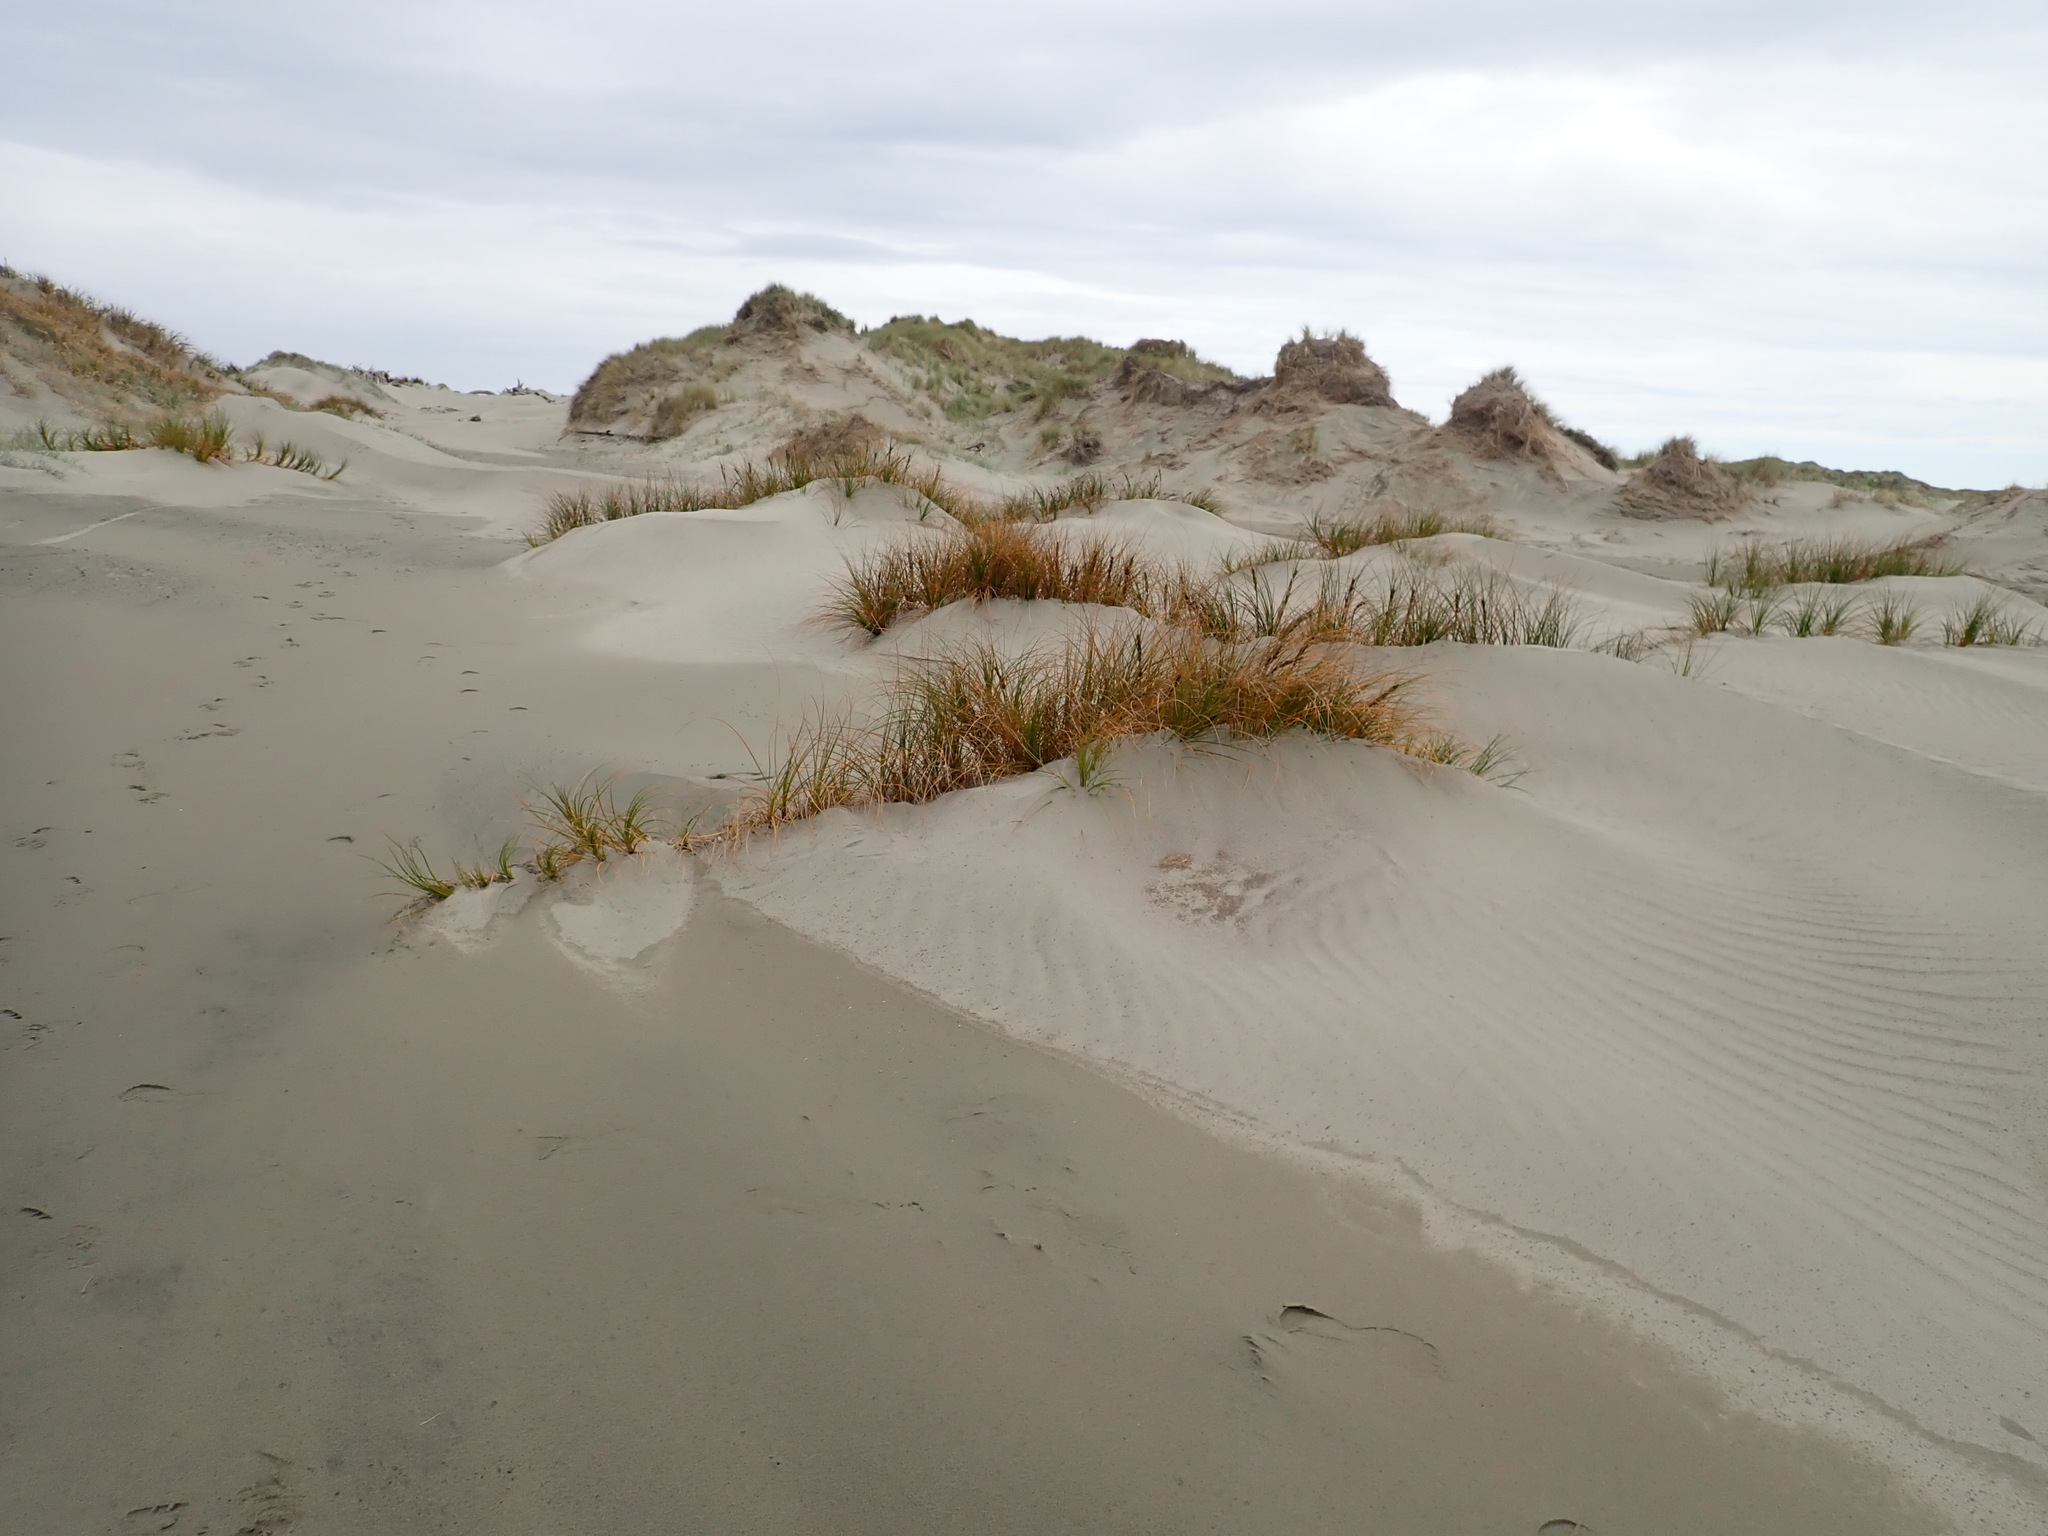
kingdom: Plantae
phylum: Tracheophyta
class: Liliopsida
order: Poales
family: Cyperaceae
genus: Ficinia
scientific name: Ficinia spiralis
